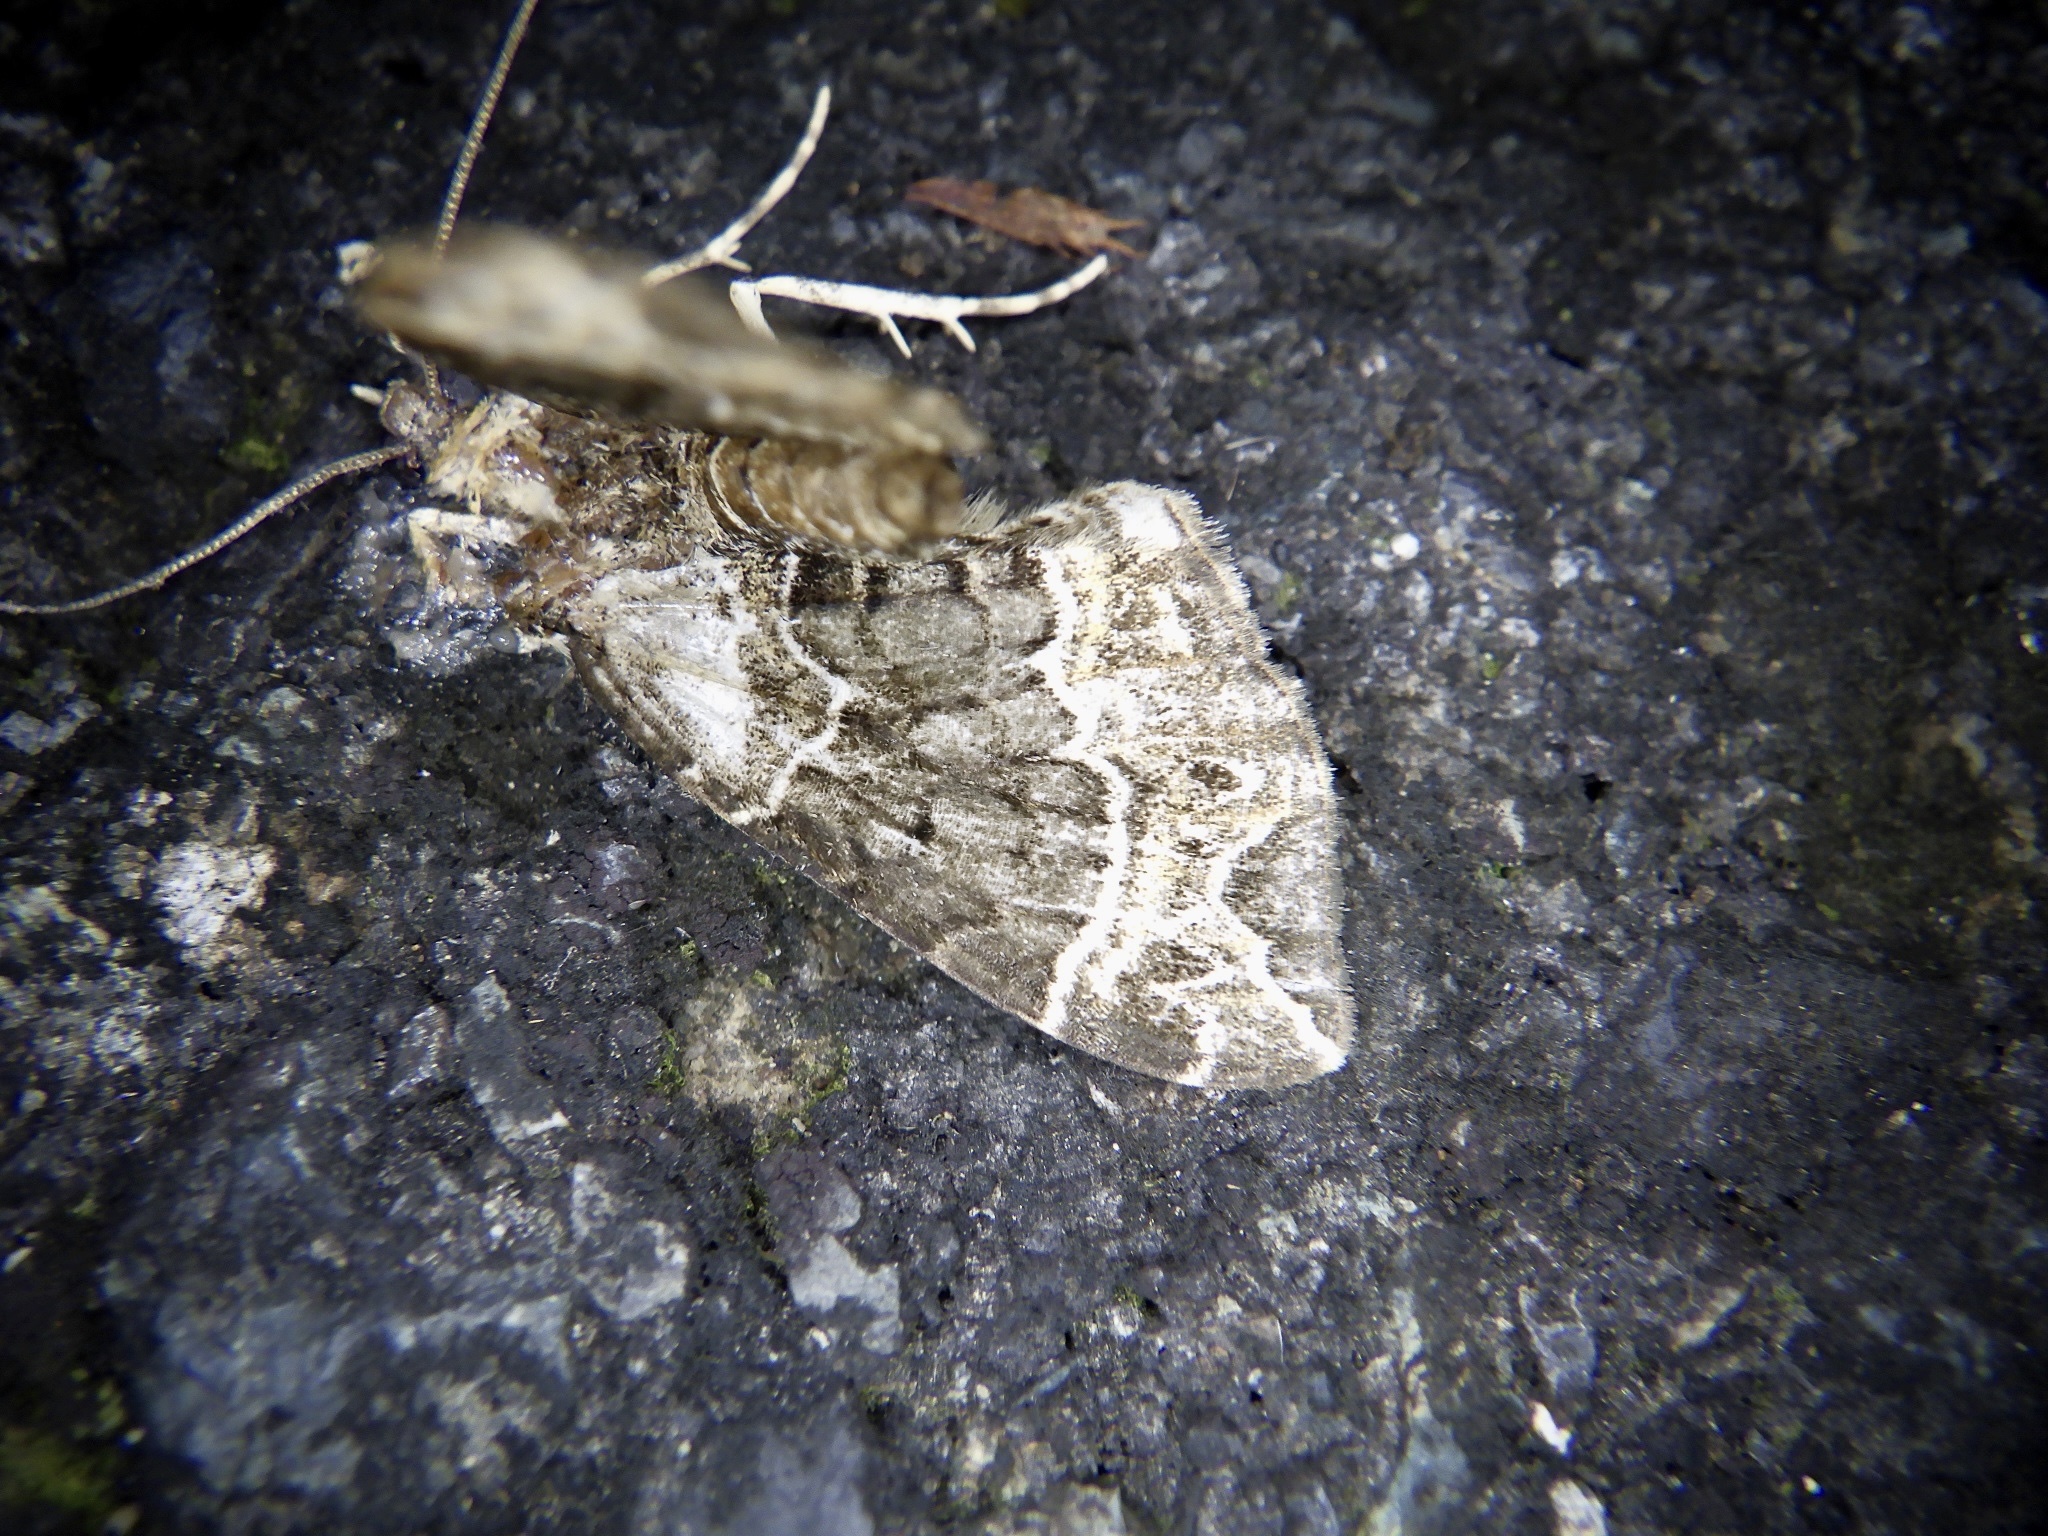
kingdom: Animalia
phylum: Arthropoda
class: Insecta
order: Lepidoptera
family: Geometridae
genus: Ecliptopera
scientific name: Ecliptopera umbrosaria
